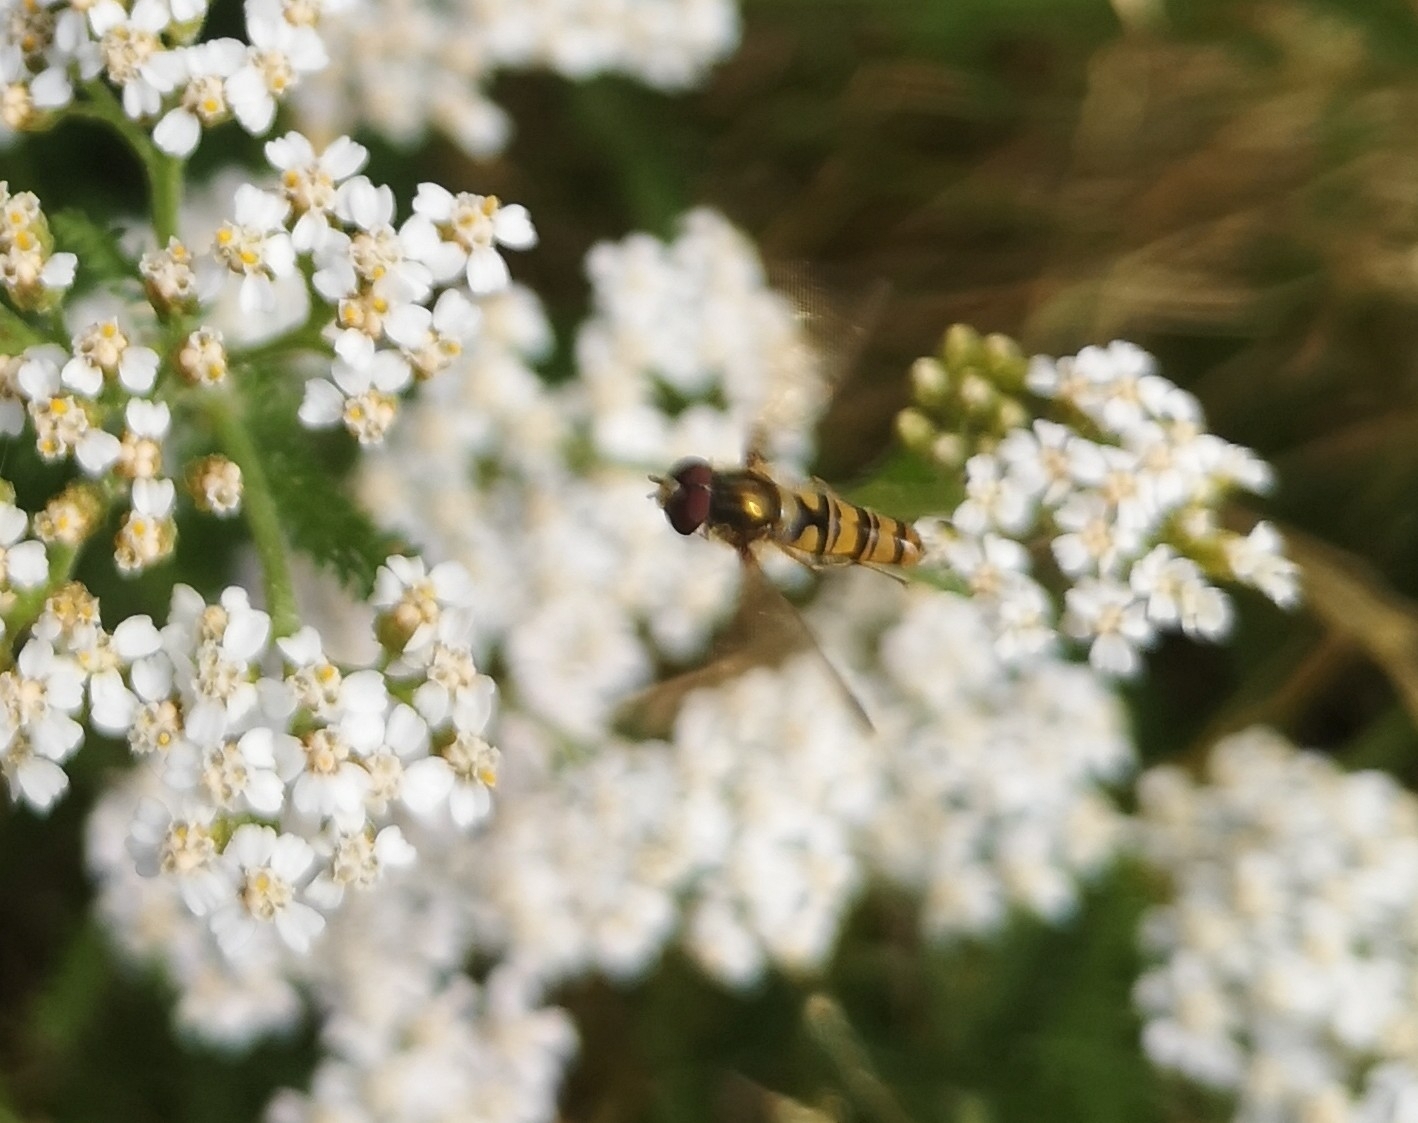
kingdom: Animalia
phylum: Arthropoda
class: Insecta
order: Diptera
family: Syrphidae
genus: Episyrphus
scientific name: Episyrphus balteatus
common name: Marmalade hoverfly
